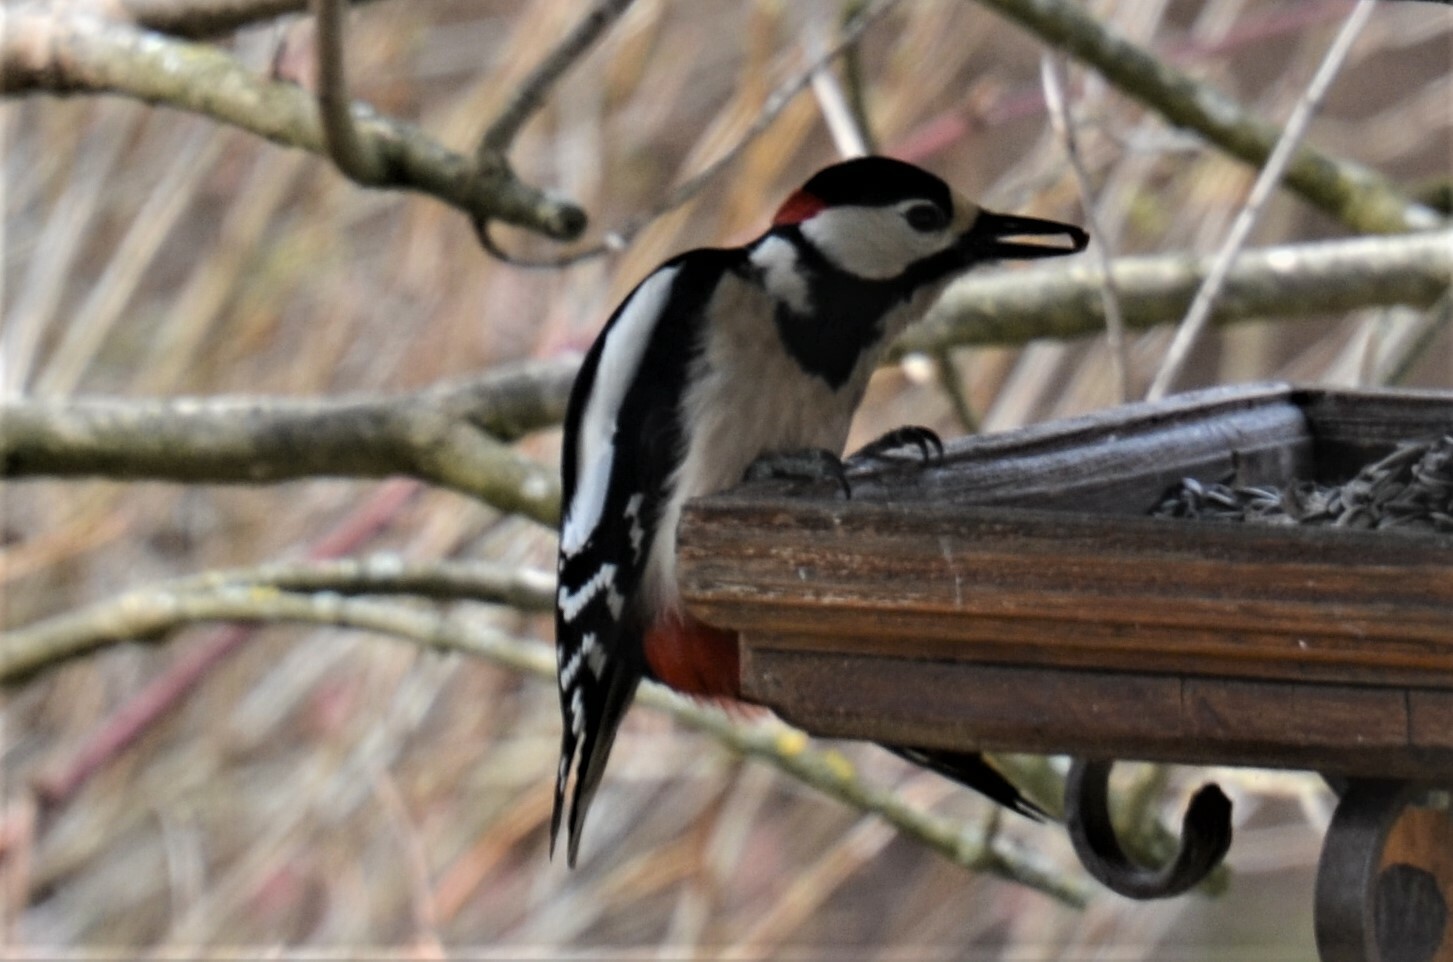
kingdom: Animalia
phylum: Chordata
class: Aves
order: Piciformes
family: Picidae
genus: Dendrocopos
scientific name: Dendrocopos major
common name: Great spotted woodpecker
